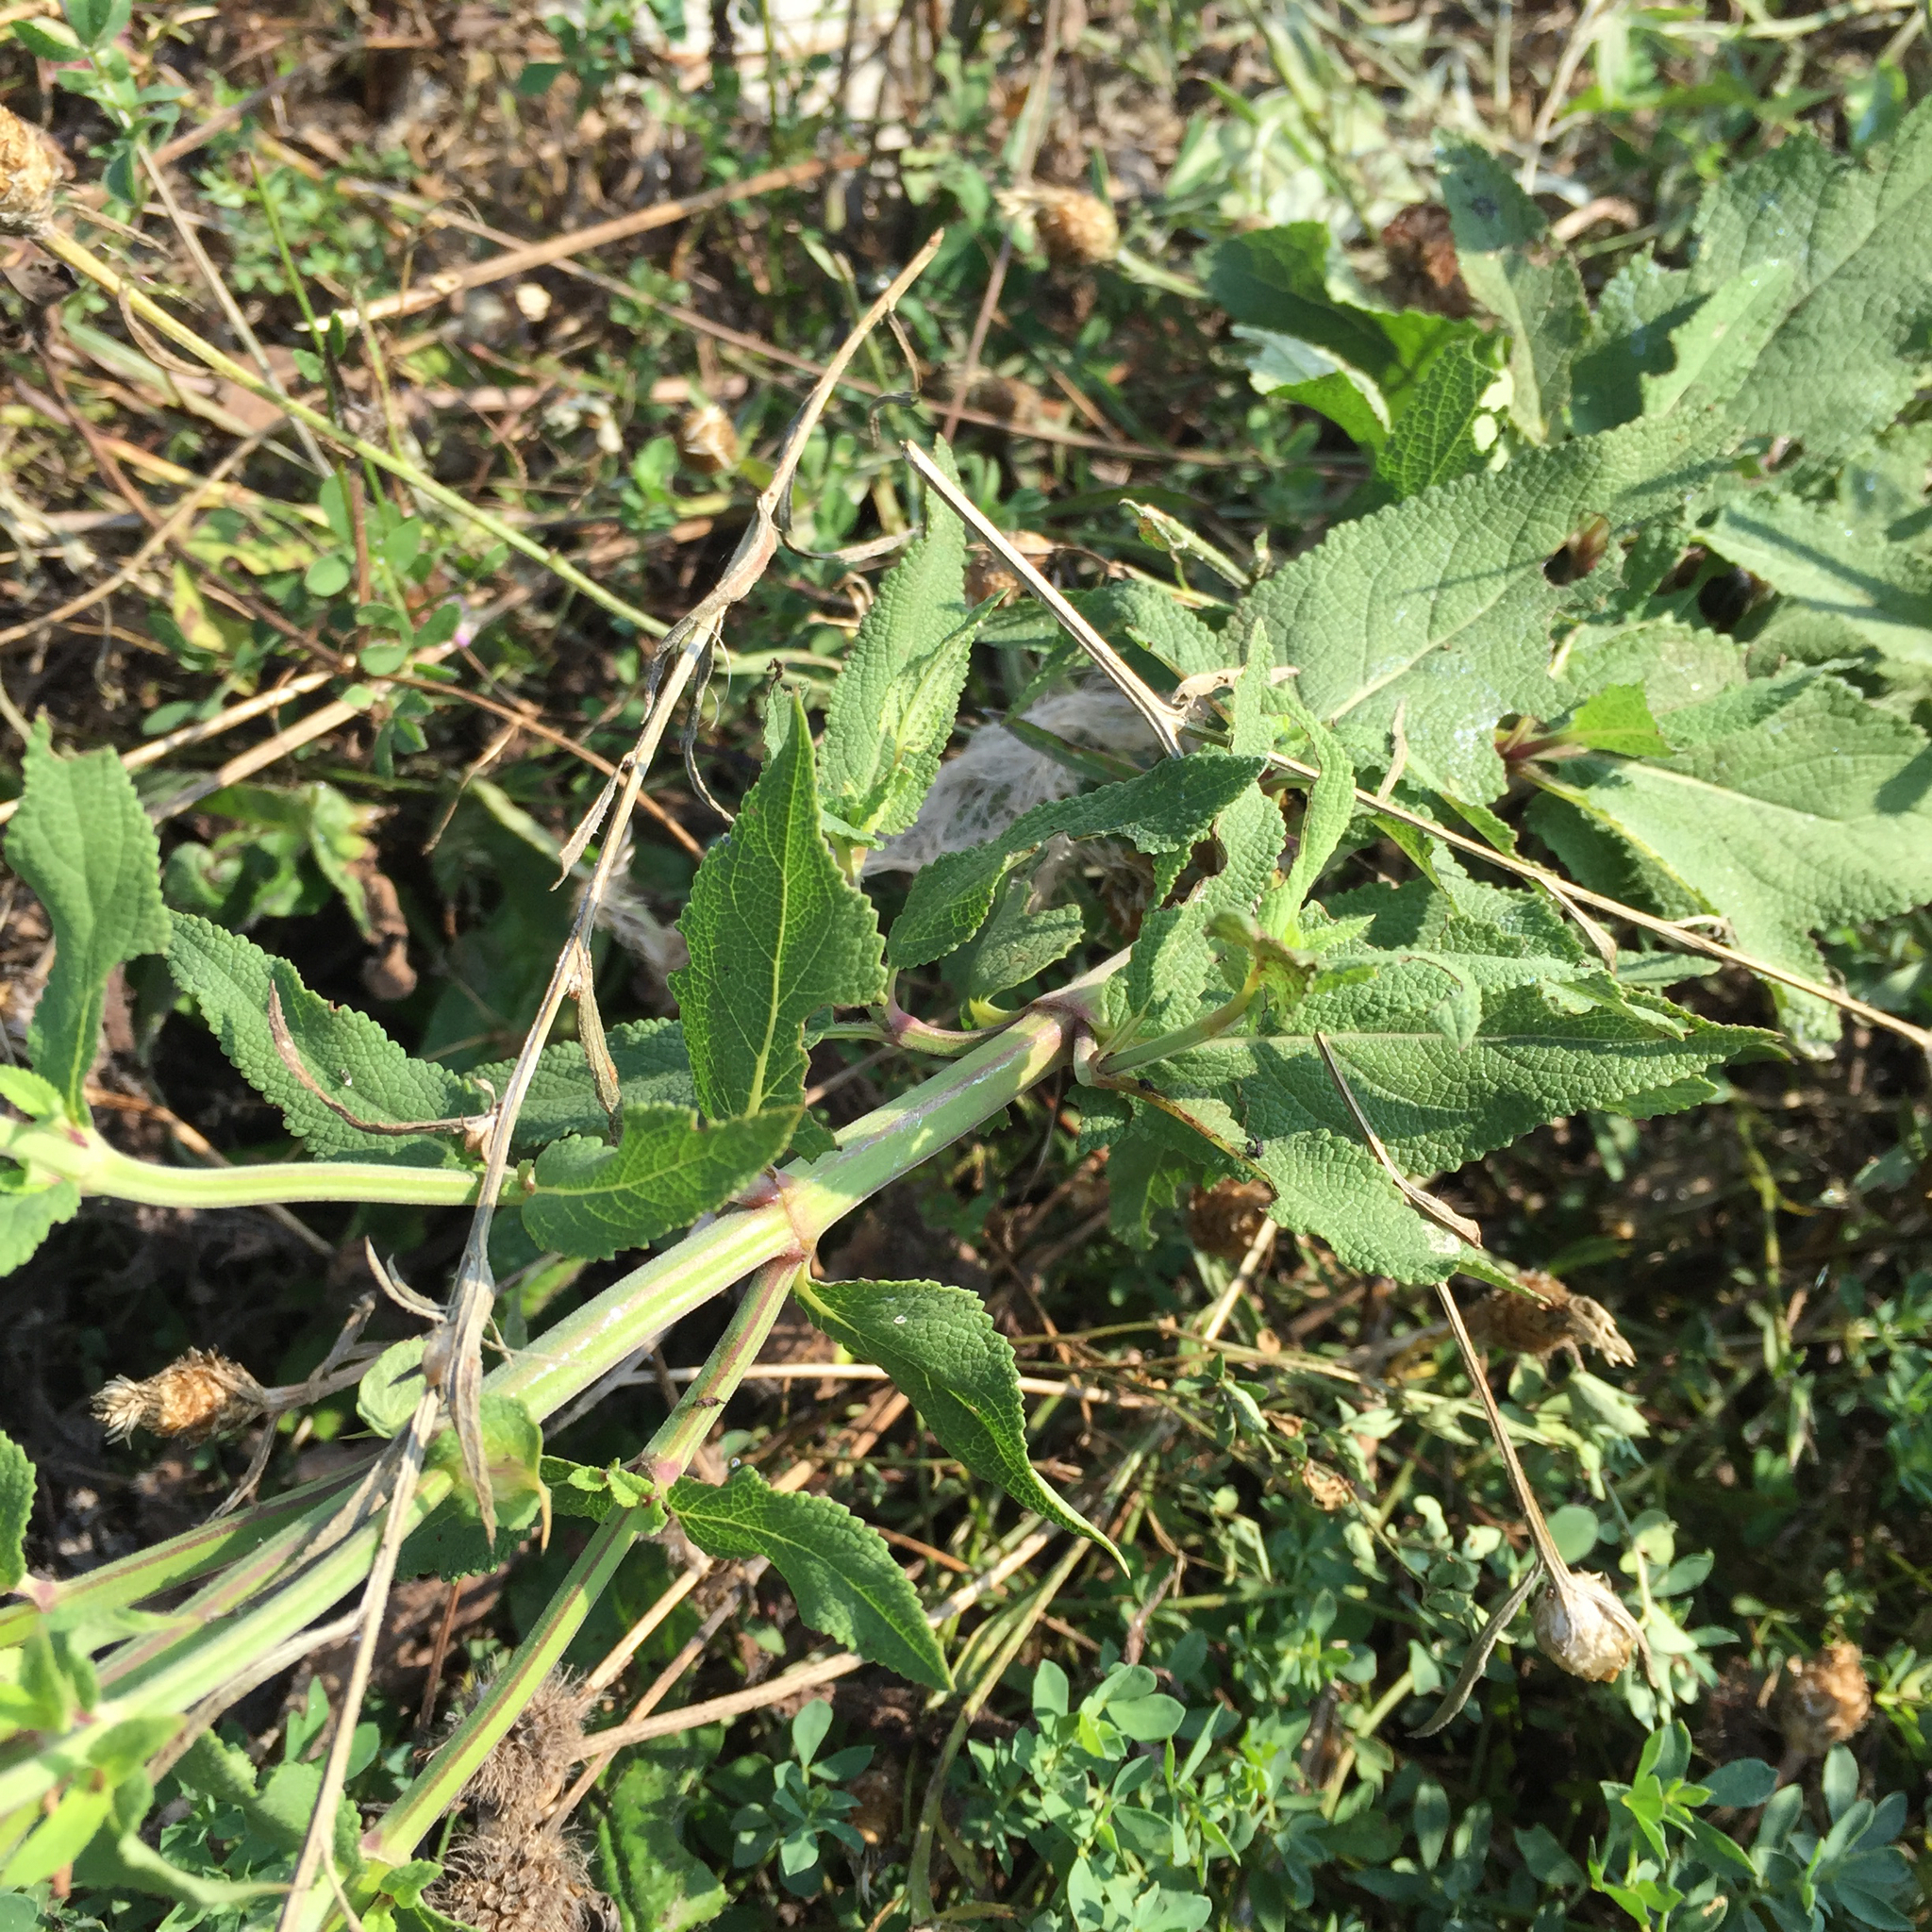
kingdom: Plantae
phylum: Tracheophyta
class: Magnoliopsida
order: Lamiales
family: Lamiaceae
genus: Salvia
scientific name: Salvia nemorosa
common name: Balkan clary
